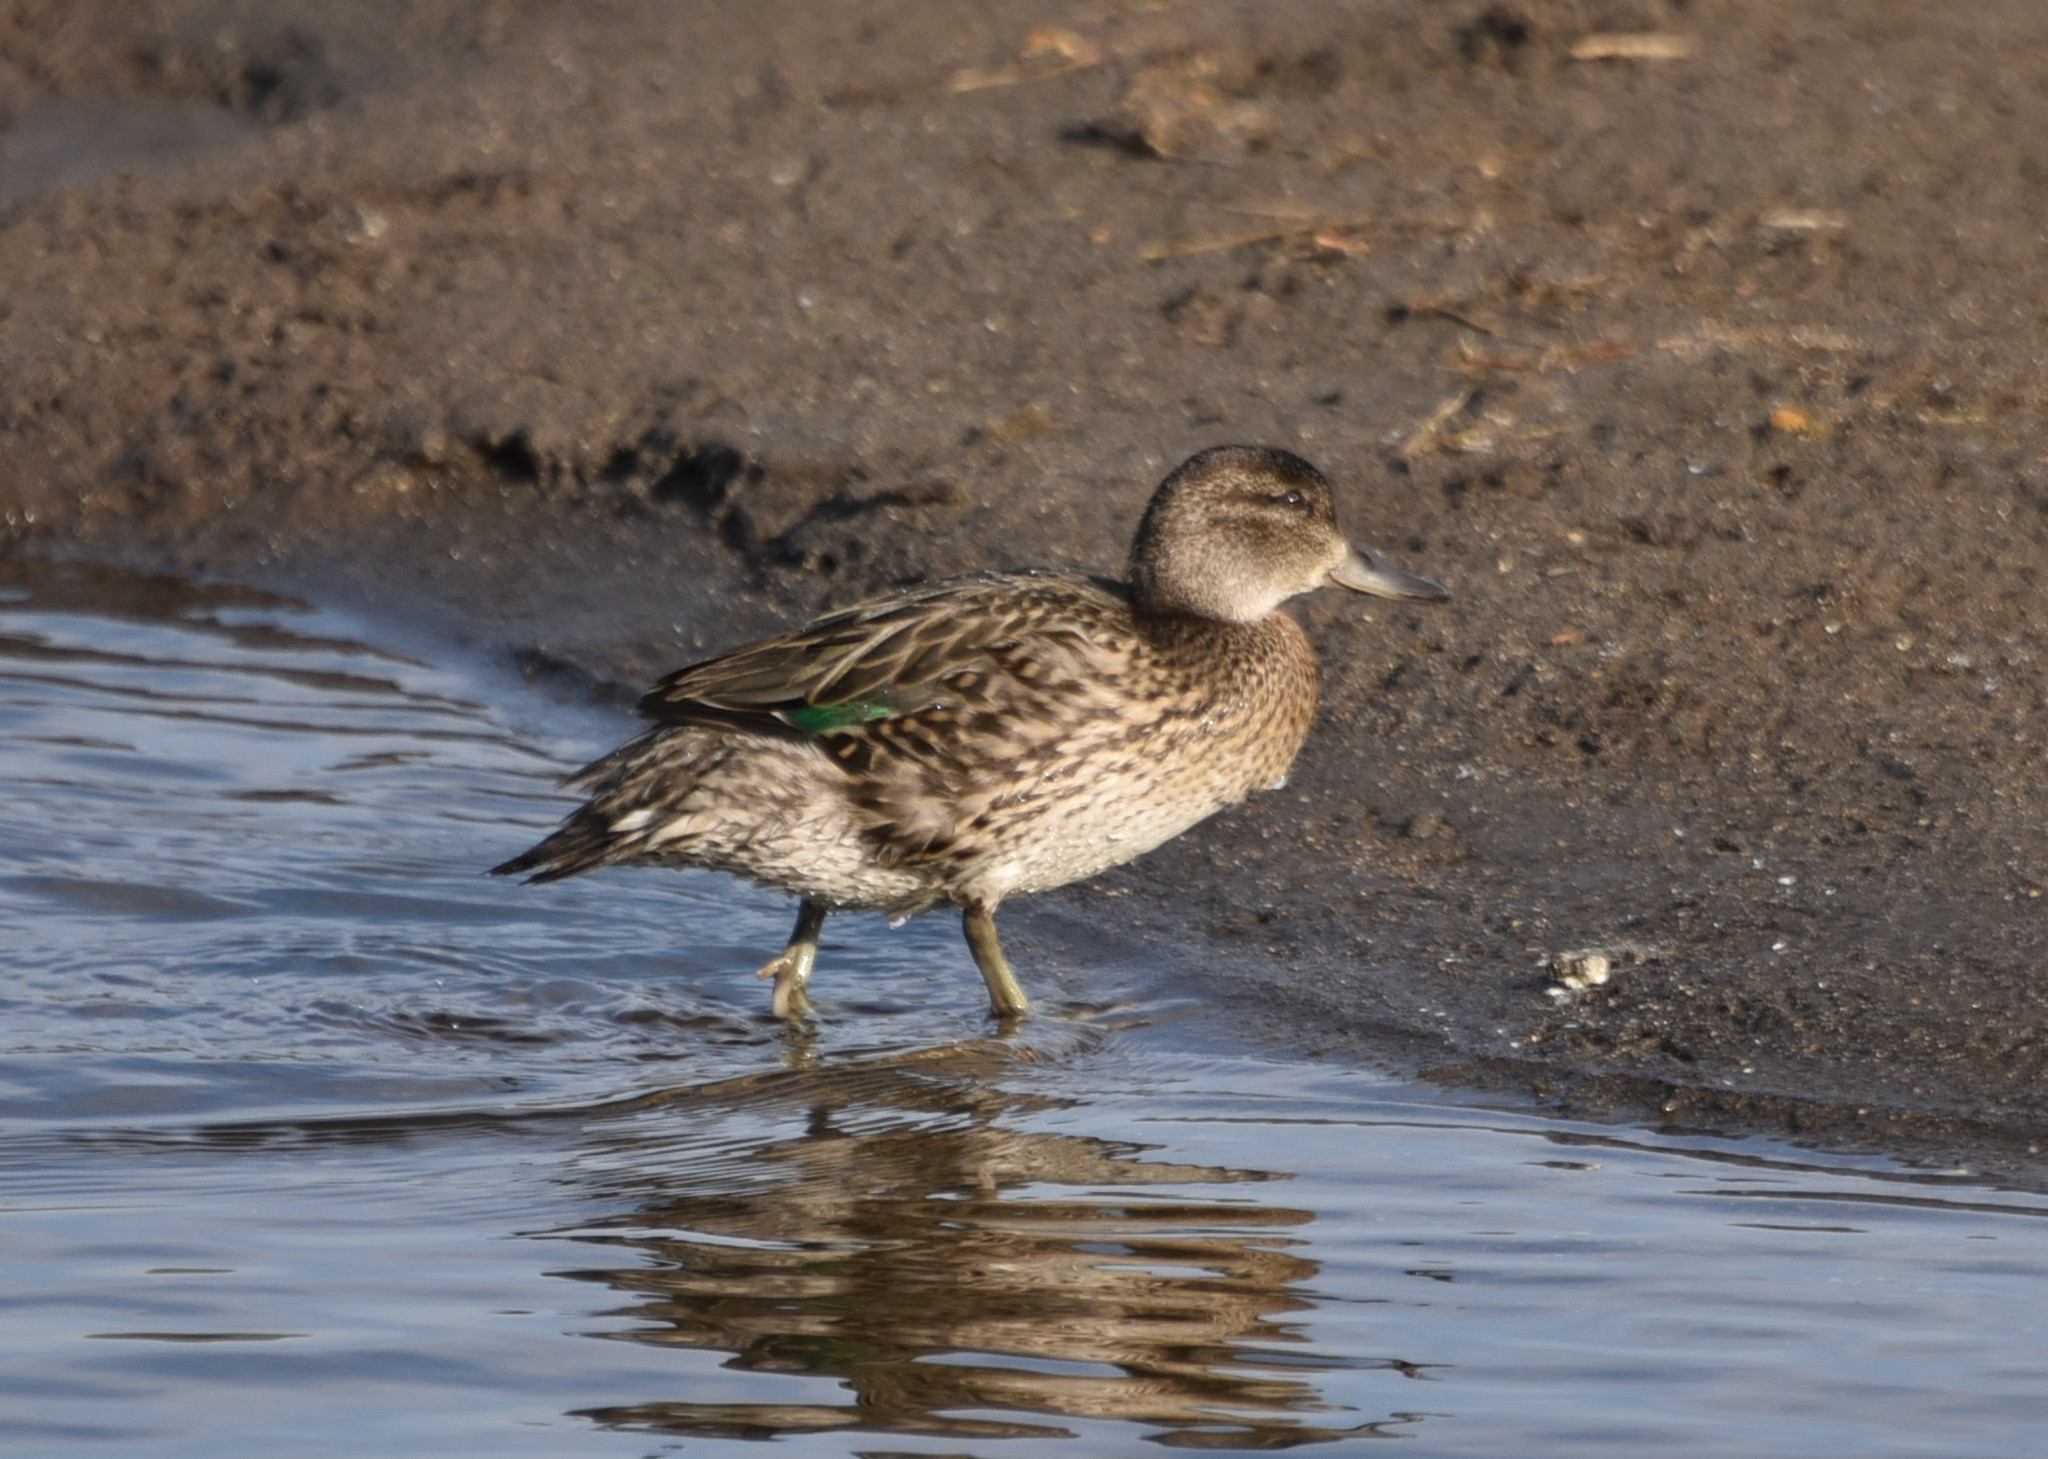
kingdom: Animalia
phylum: Chordata
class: Aves
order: Anseriformes
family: Anatidae
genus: Anas
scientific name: Anas crecca
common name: Eurasian teal
